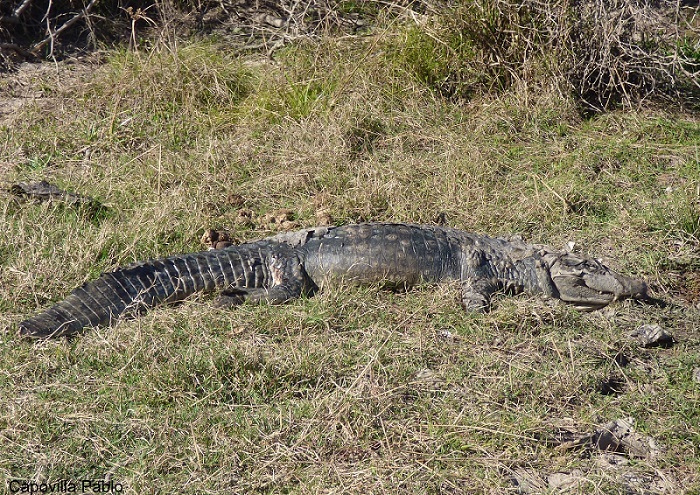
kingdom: Animalia
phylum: Chordata
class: Crocodylia
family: Alligatoridae
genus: Caiman
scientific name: Caiman latirostris
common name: Broad-snouted caiman
